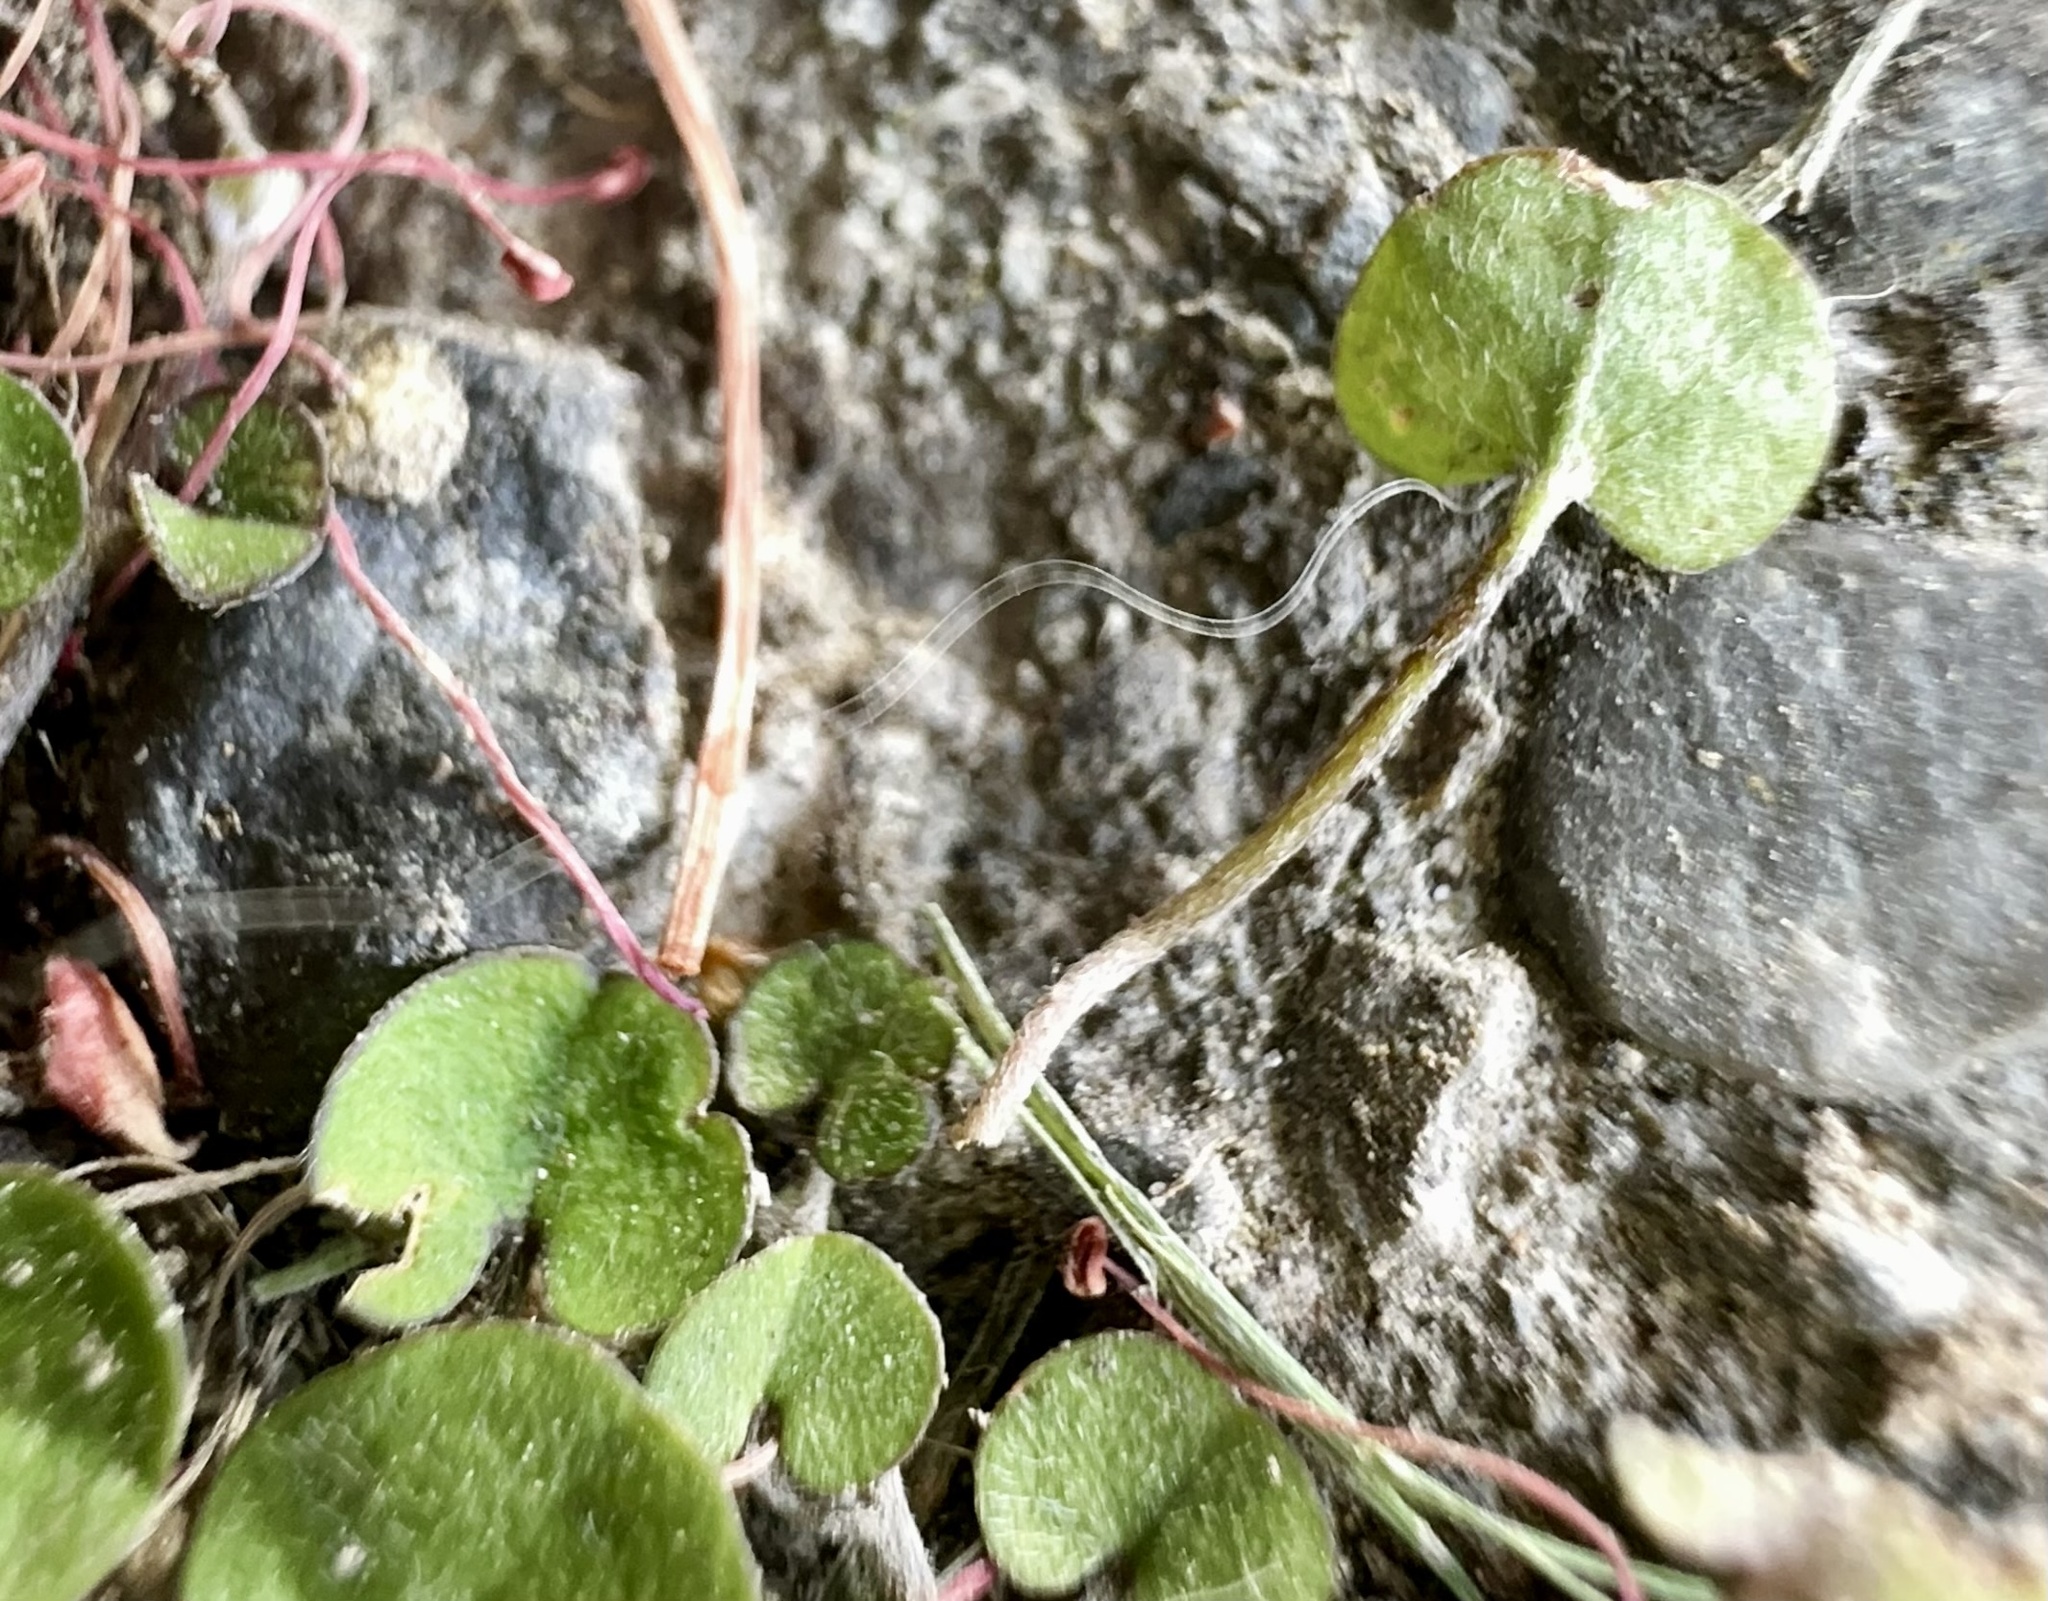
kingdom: Plantae
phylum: Tracheophyta
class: Magnoliopsida
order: Solanales
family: Convolvulaceae
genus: Dichondra
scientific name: Dichondra repens
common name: Kidneyweed
